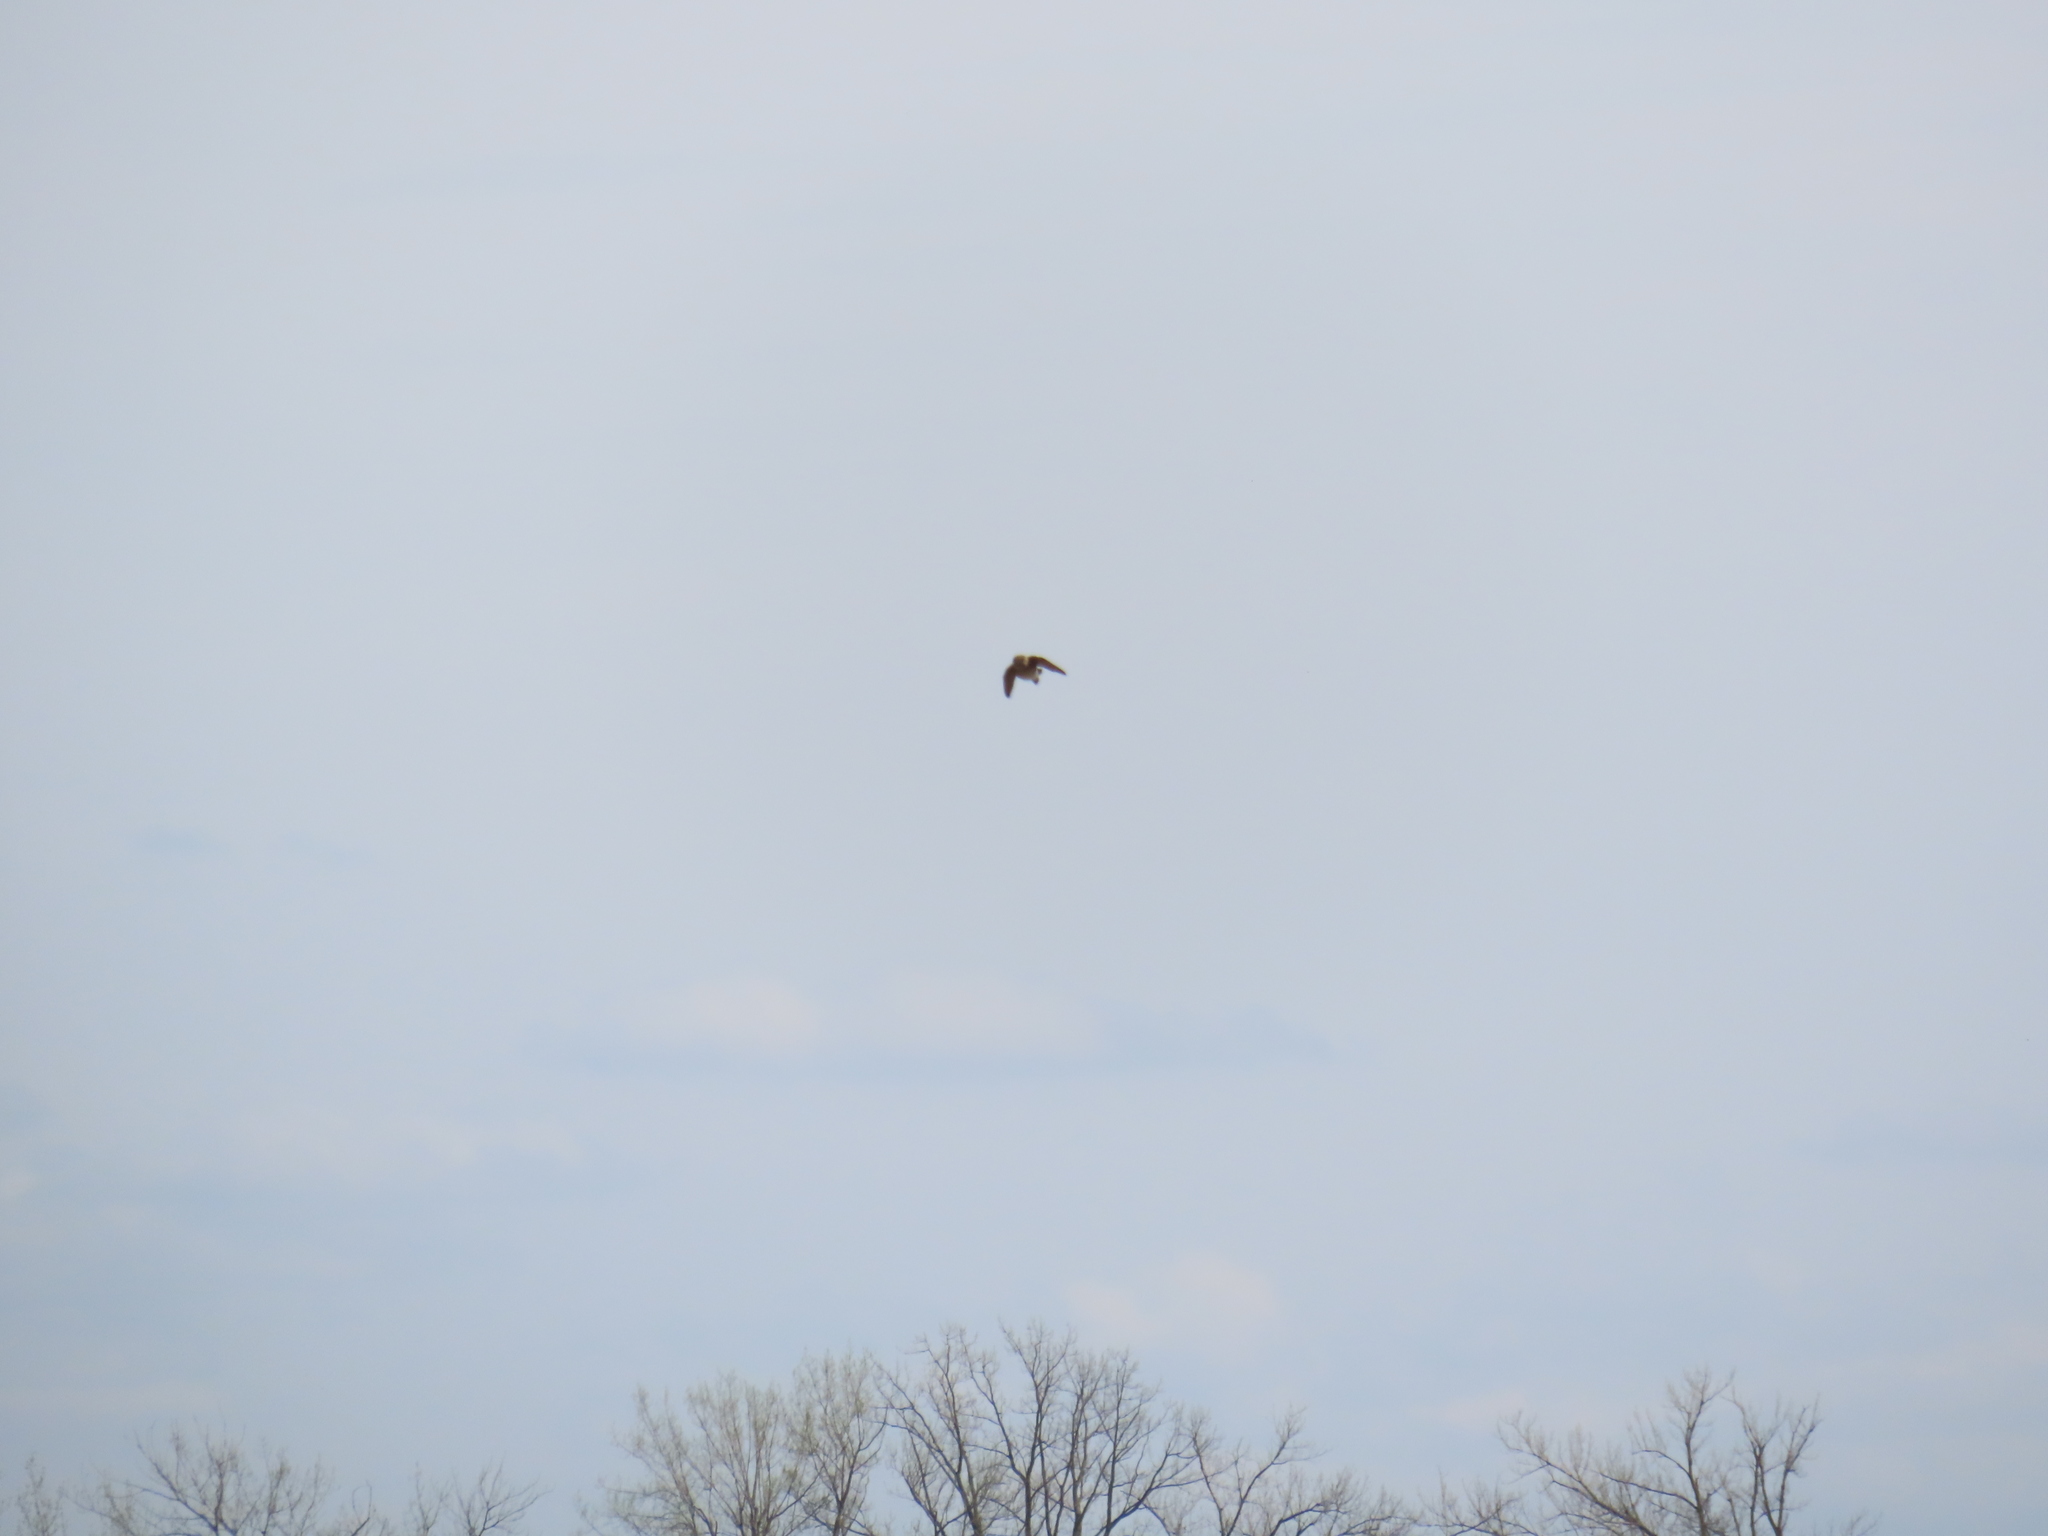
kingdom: Animalia
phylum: Chordata
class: Aves
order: Passeriformes
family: Hirundinidae
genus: Stelgidopteryx
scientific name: Stelgidopteryx serripennis
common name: Northern rough-winged swallow
